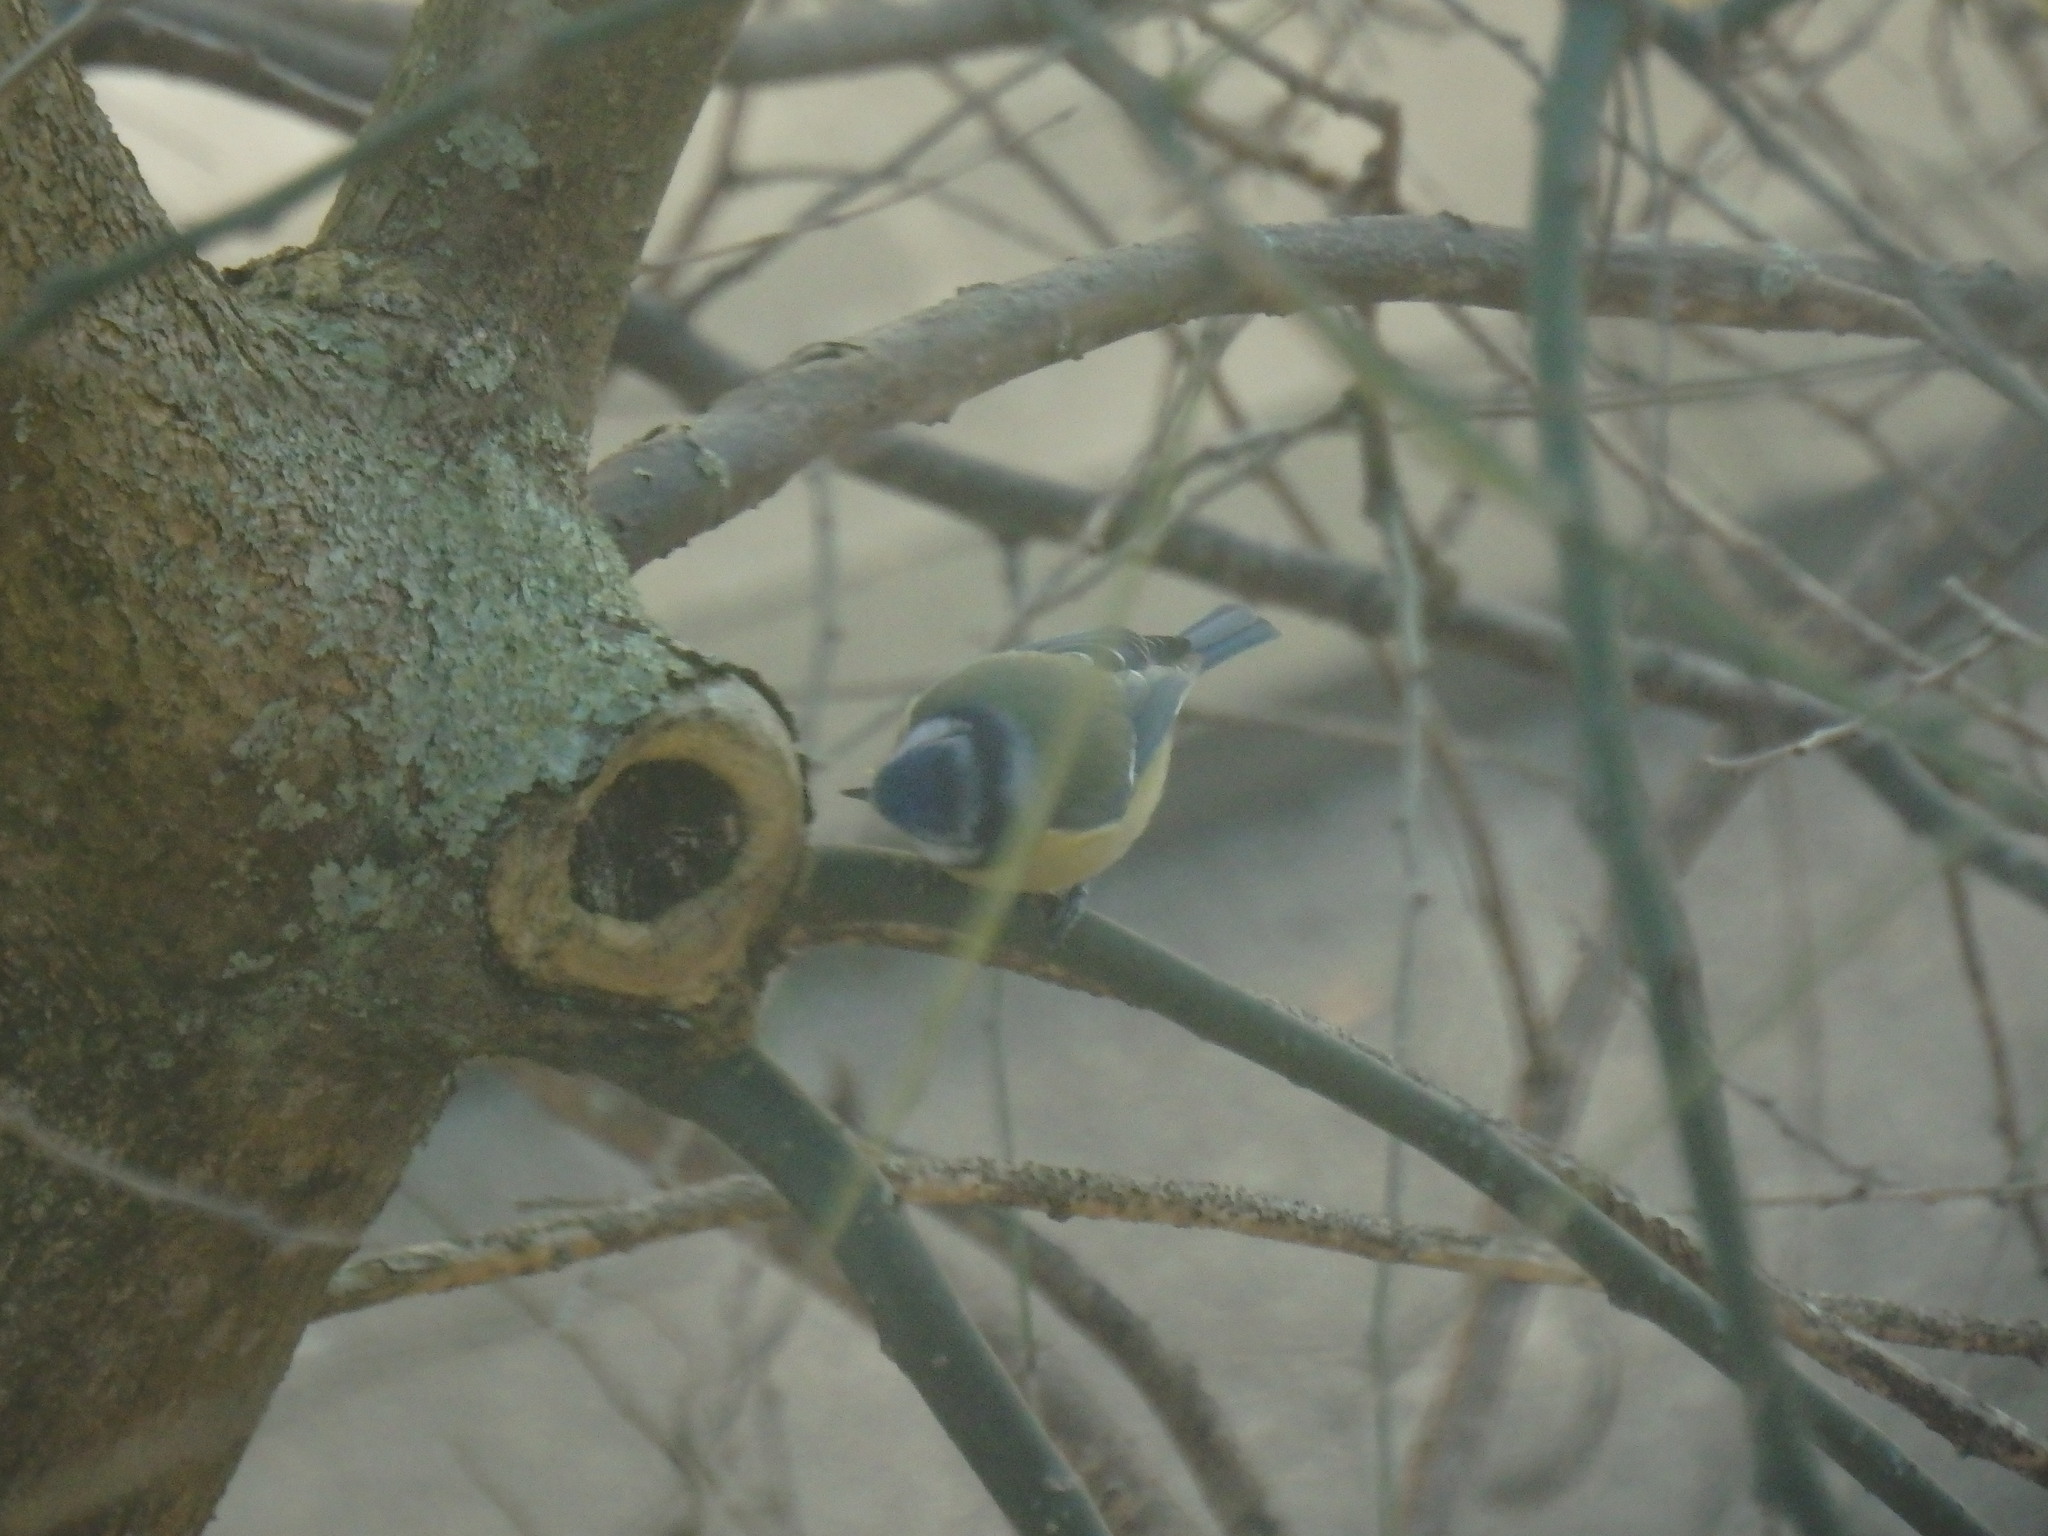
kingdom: Animalia
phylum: Chordata
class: Aves
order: Passeriformes
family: Paridae
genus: Cyanistes
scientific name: Cyanistes caeruleus
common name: Eurasian blue tit
